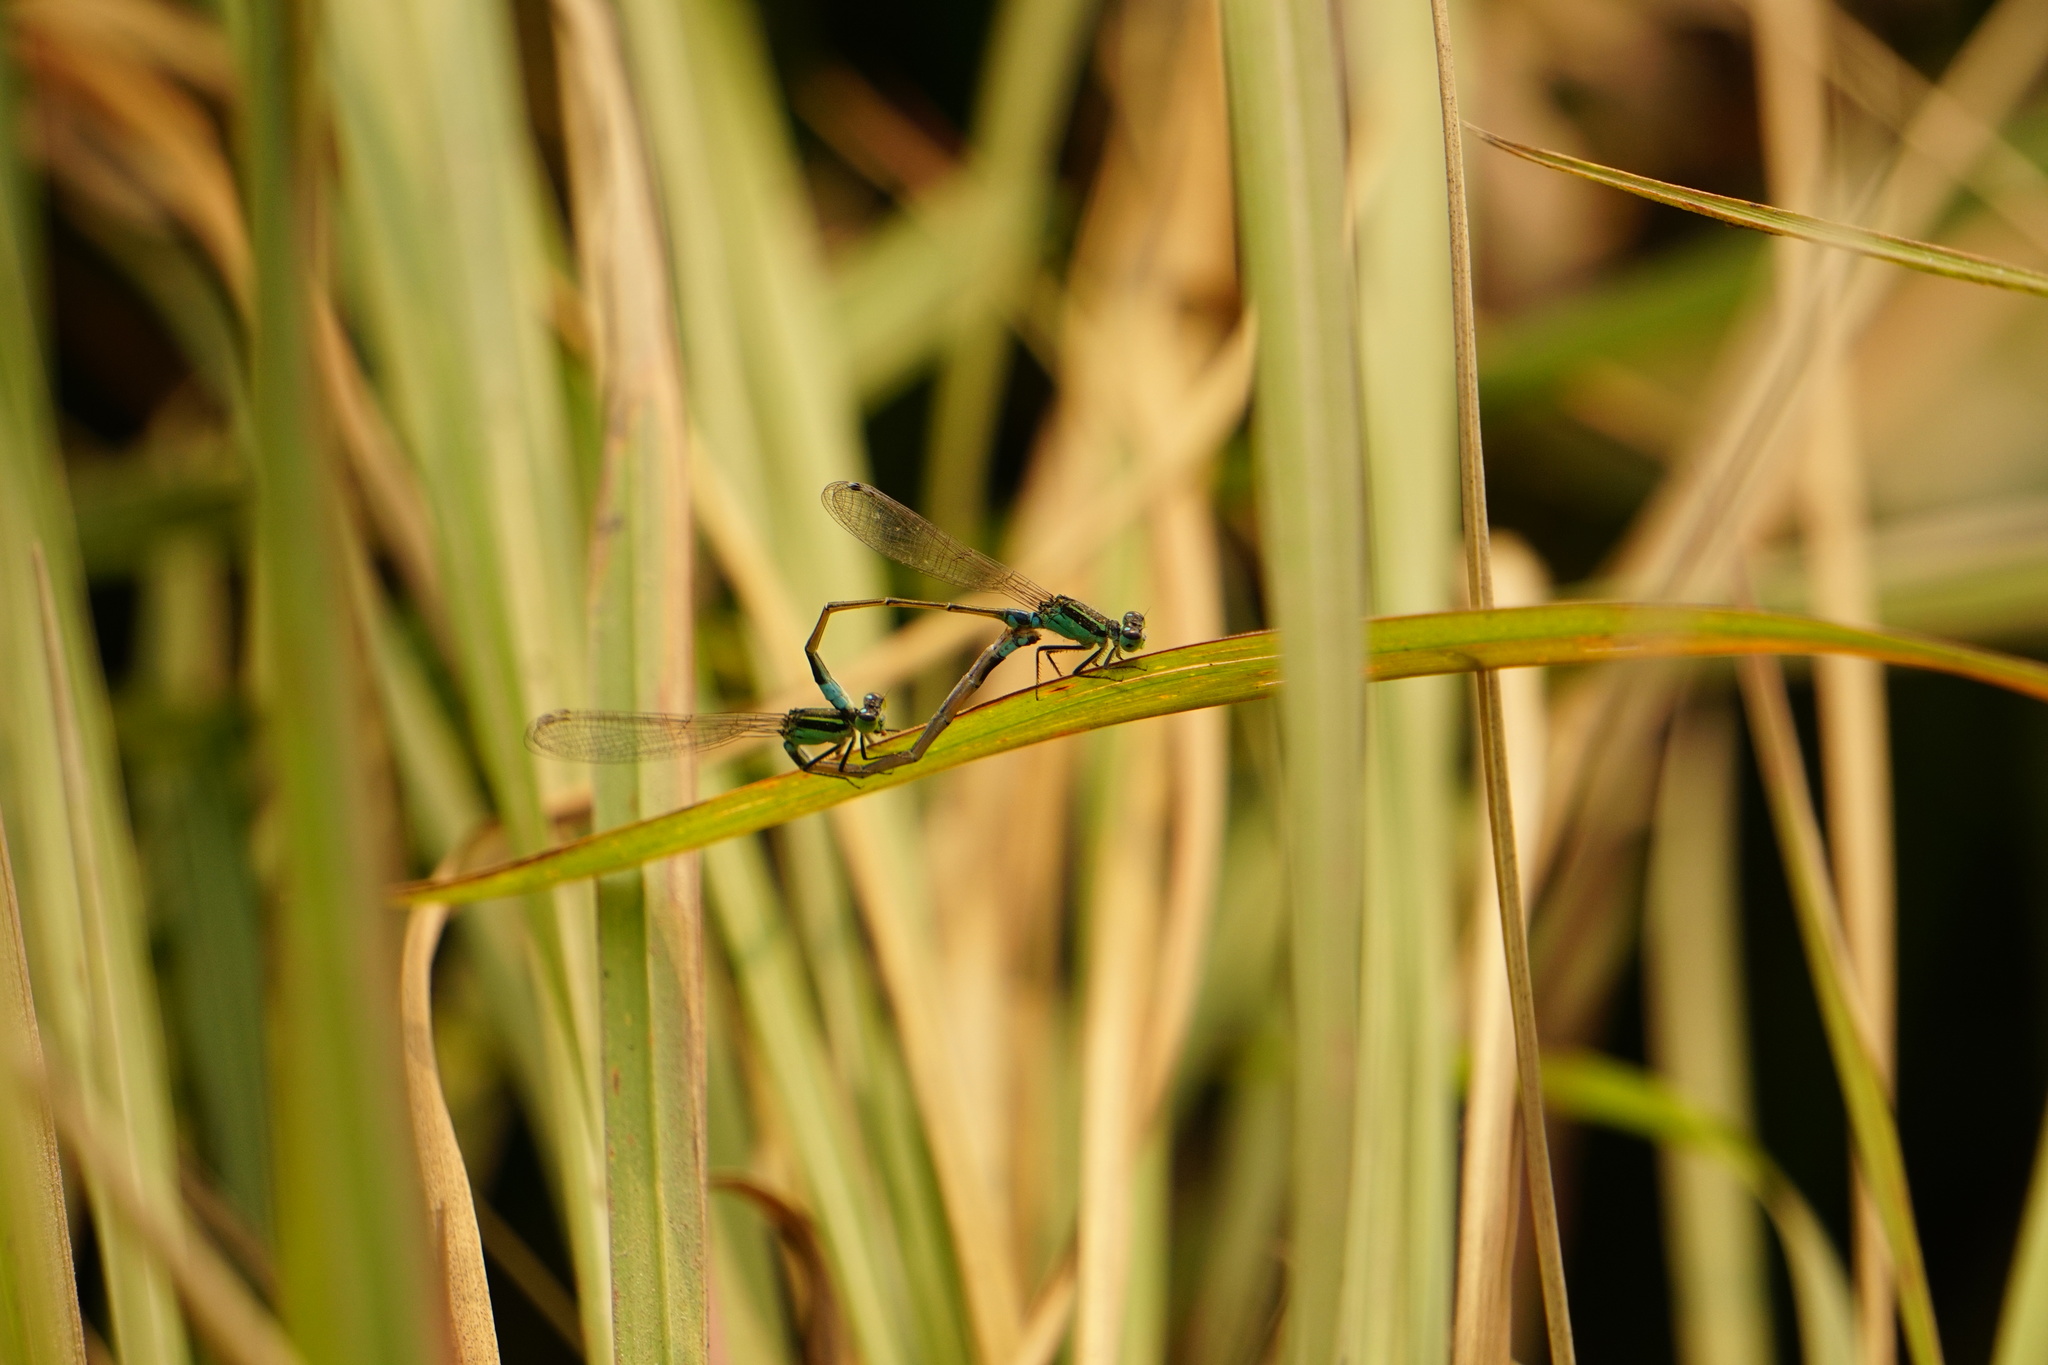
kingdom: Animalia
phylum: Arthropoda
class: Insecta
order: Odonata
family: Coenagrionidae
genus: Ischnura
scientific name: Ischnura senegalensis
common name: Tropical bluetail
